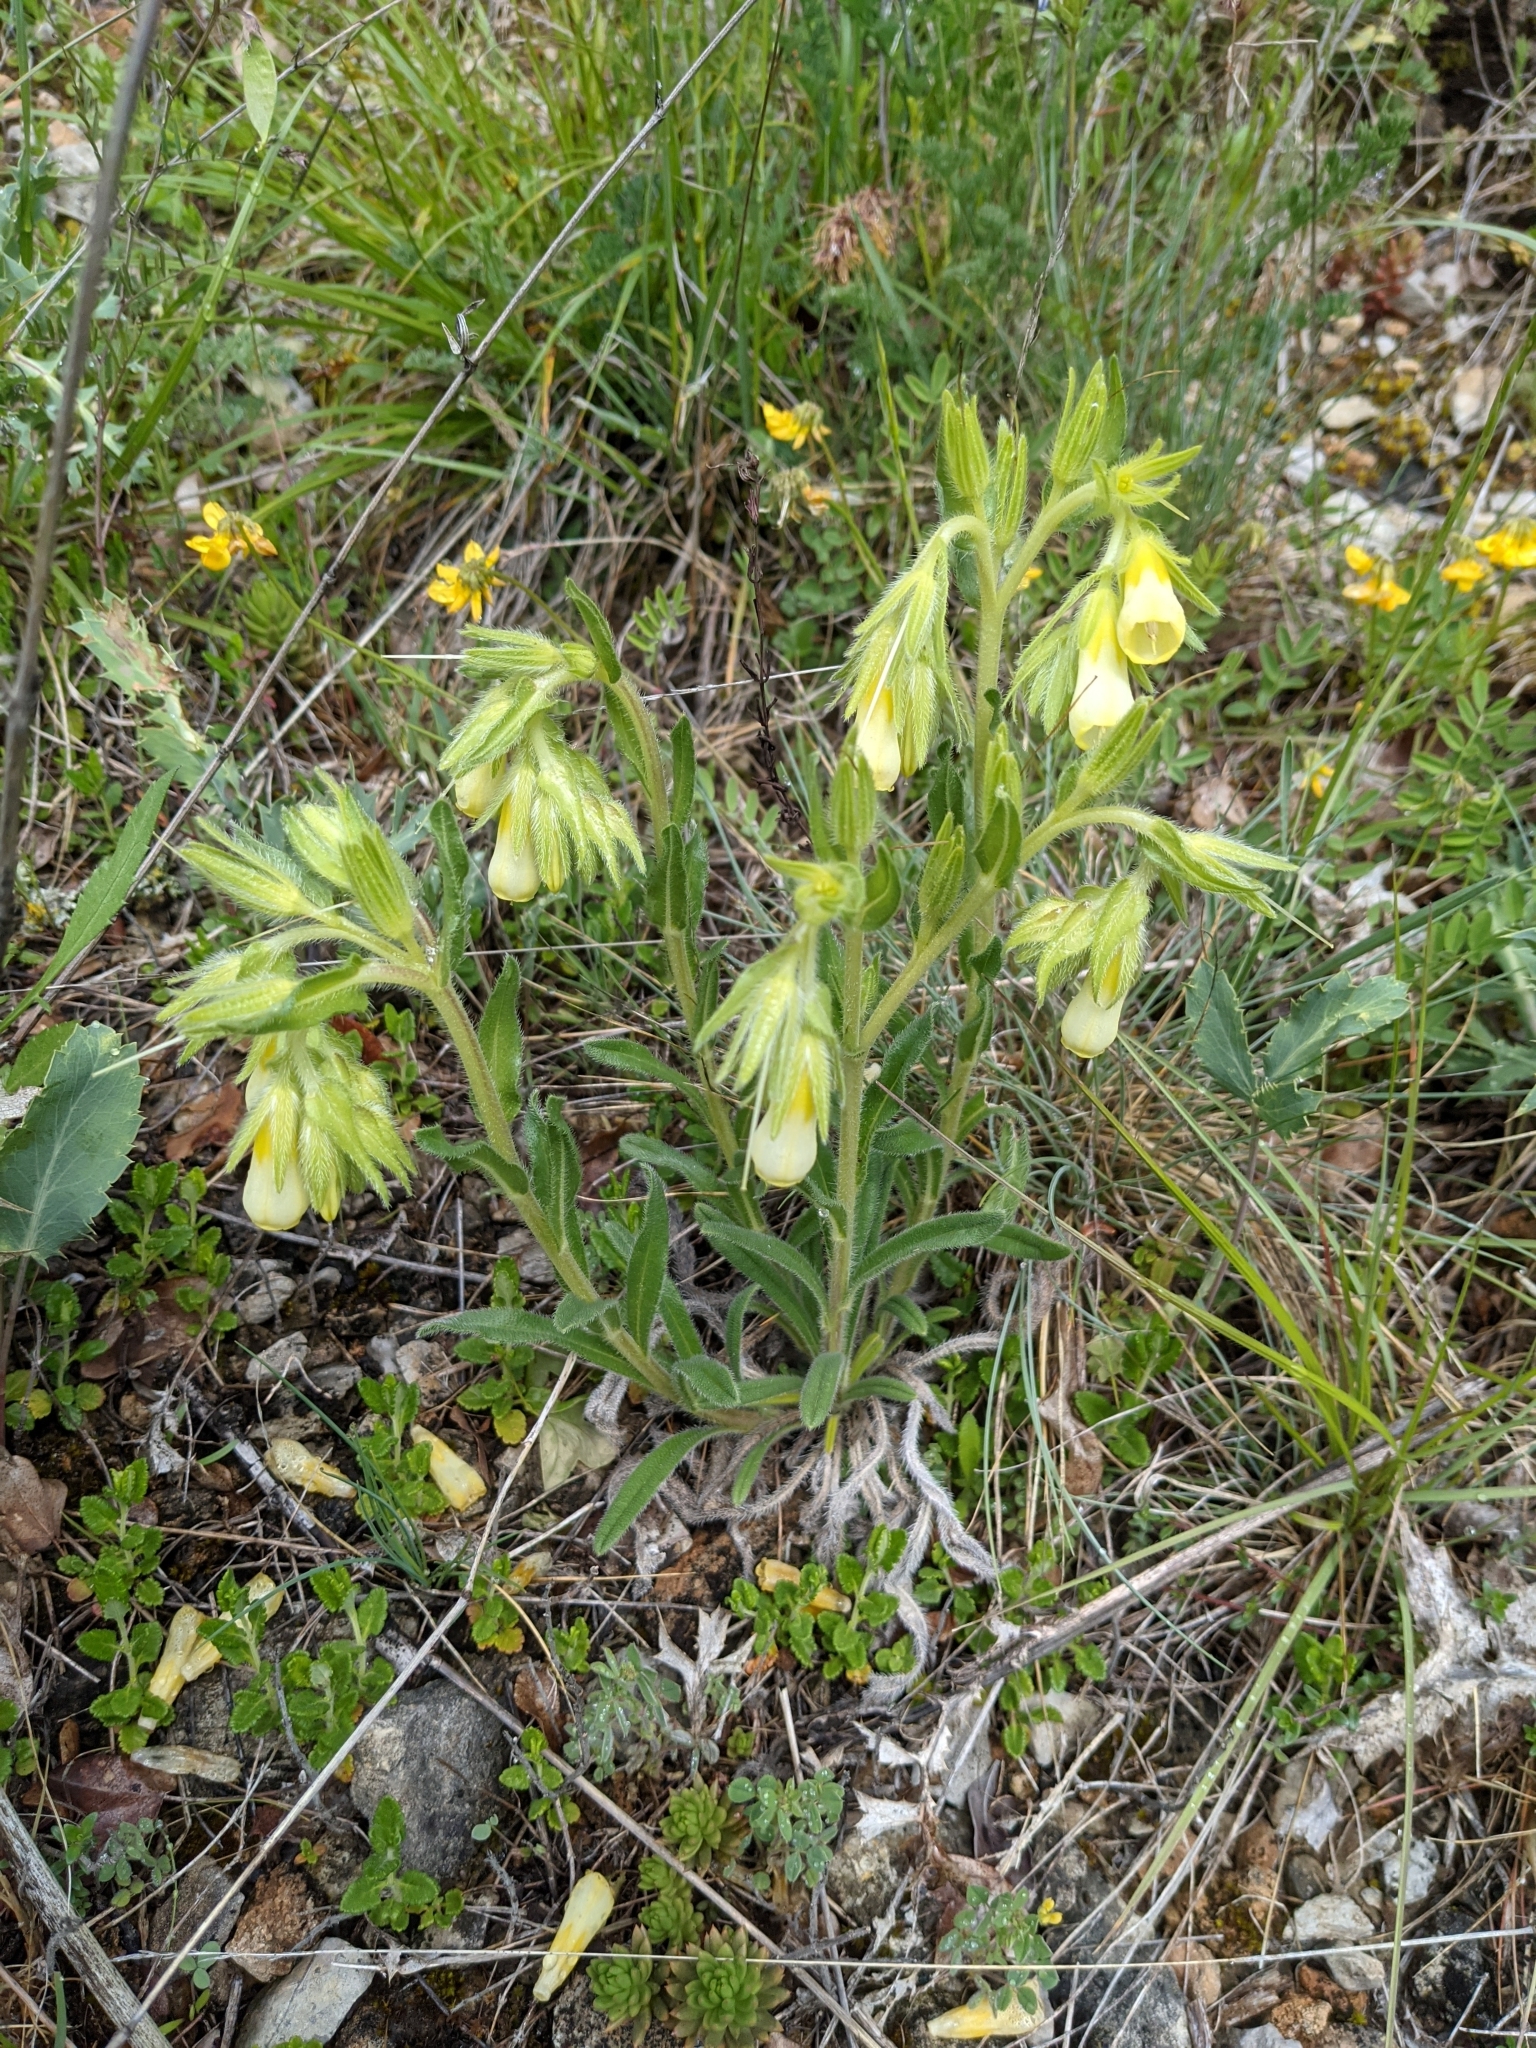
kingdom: Plantae
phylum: Tracheophyta
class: Magnoliopsida
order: Boraginales
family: Boraginaceae
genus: Onosma
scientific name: Onosma tricerosperma
